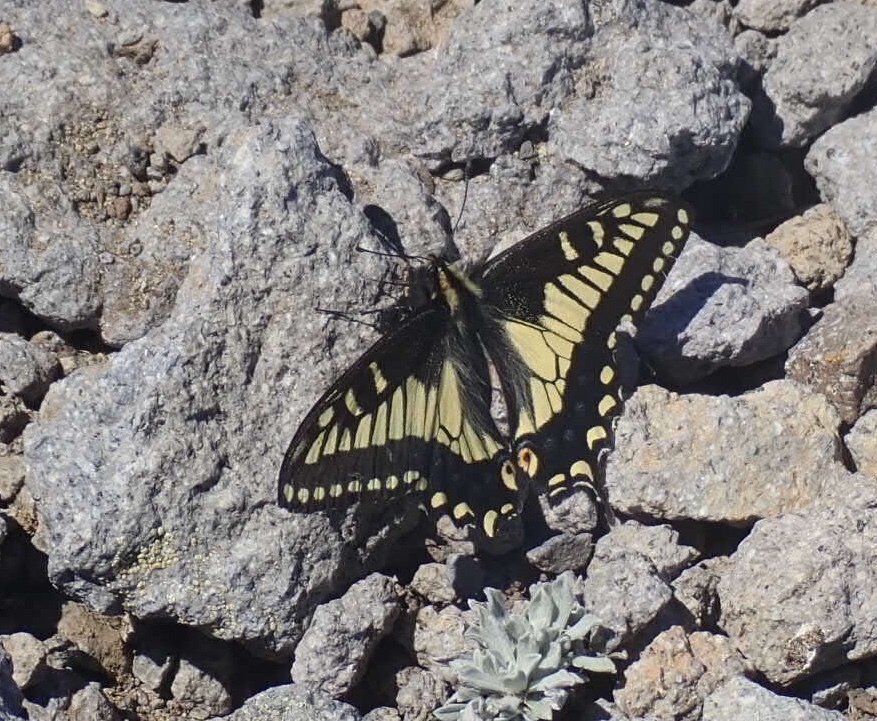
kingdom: Animalia
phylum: Arthropoda
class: Insecta
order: Lepidoptera
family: Papilionidae
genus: Papilio
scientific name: Papilio zelicaon
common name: Anise swallowtail
